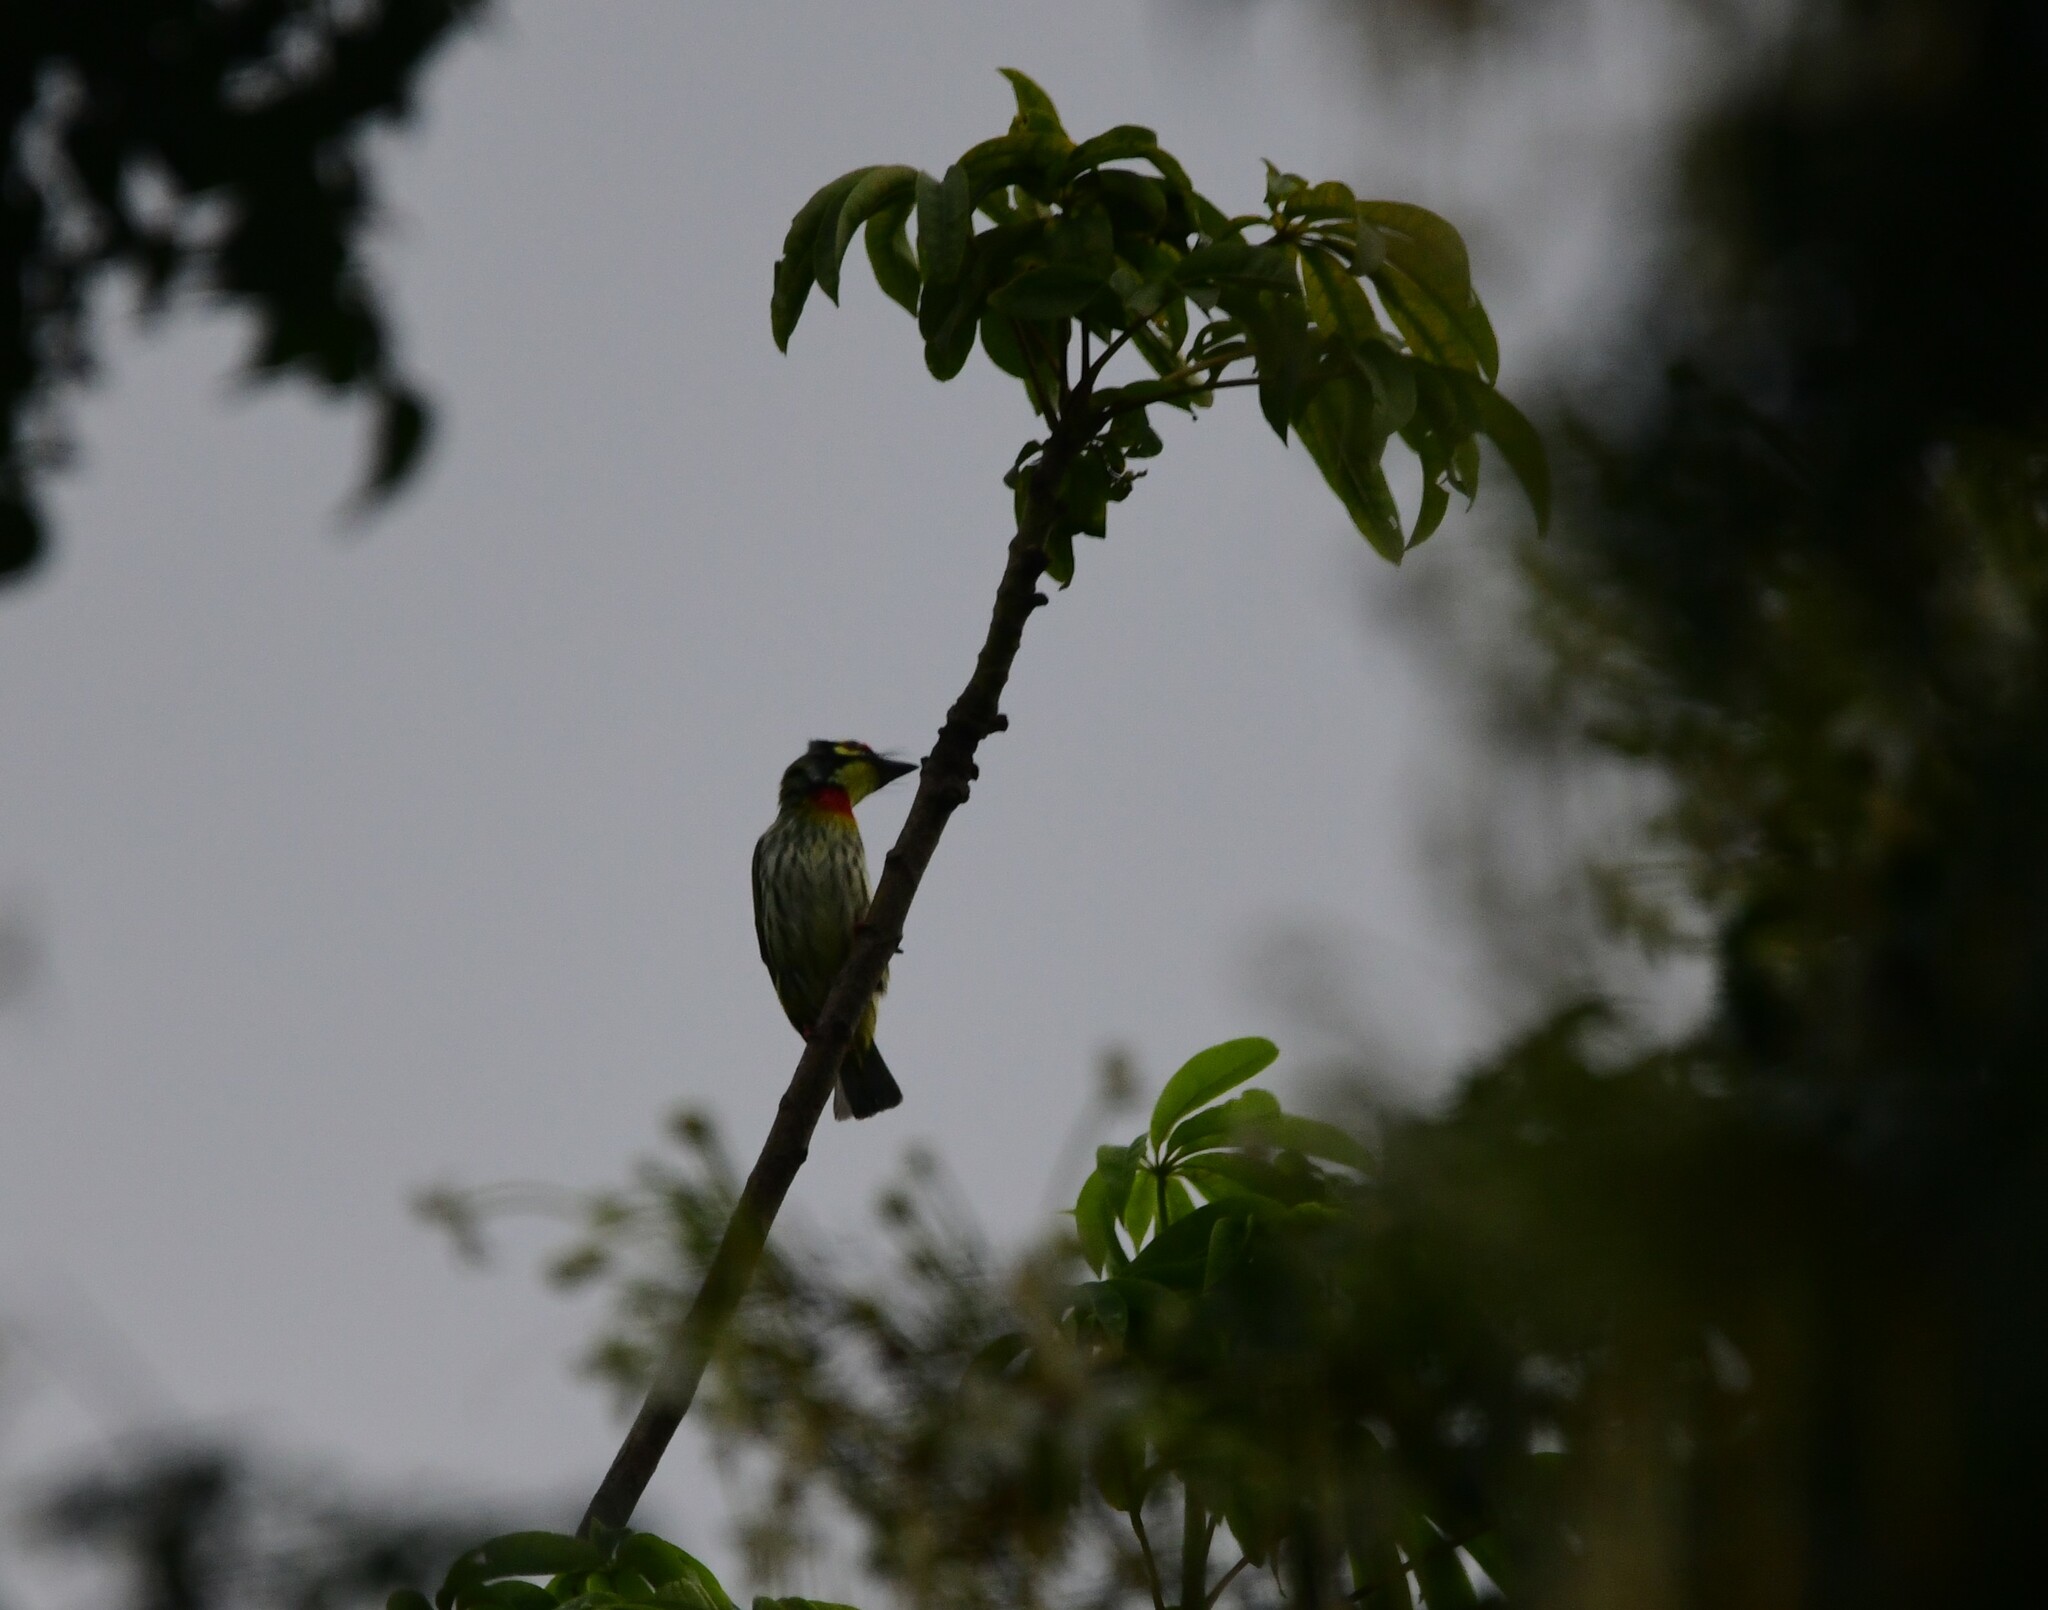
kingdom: Animalia
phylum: Chordata
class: Aves
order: Piciformes
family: Megalaimidae
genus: Psilopogon
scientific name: Psilopogon haemacephalus
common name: Coppersmith barbet
